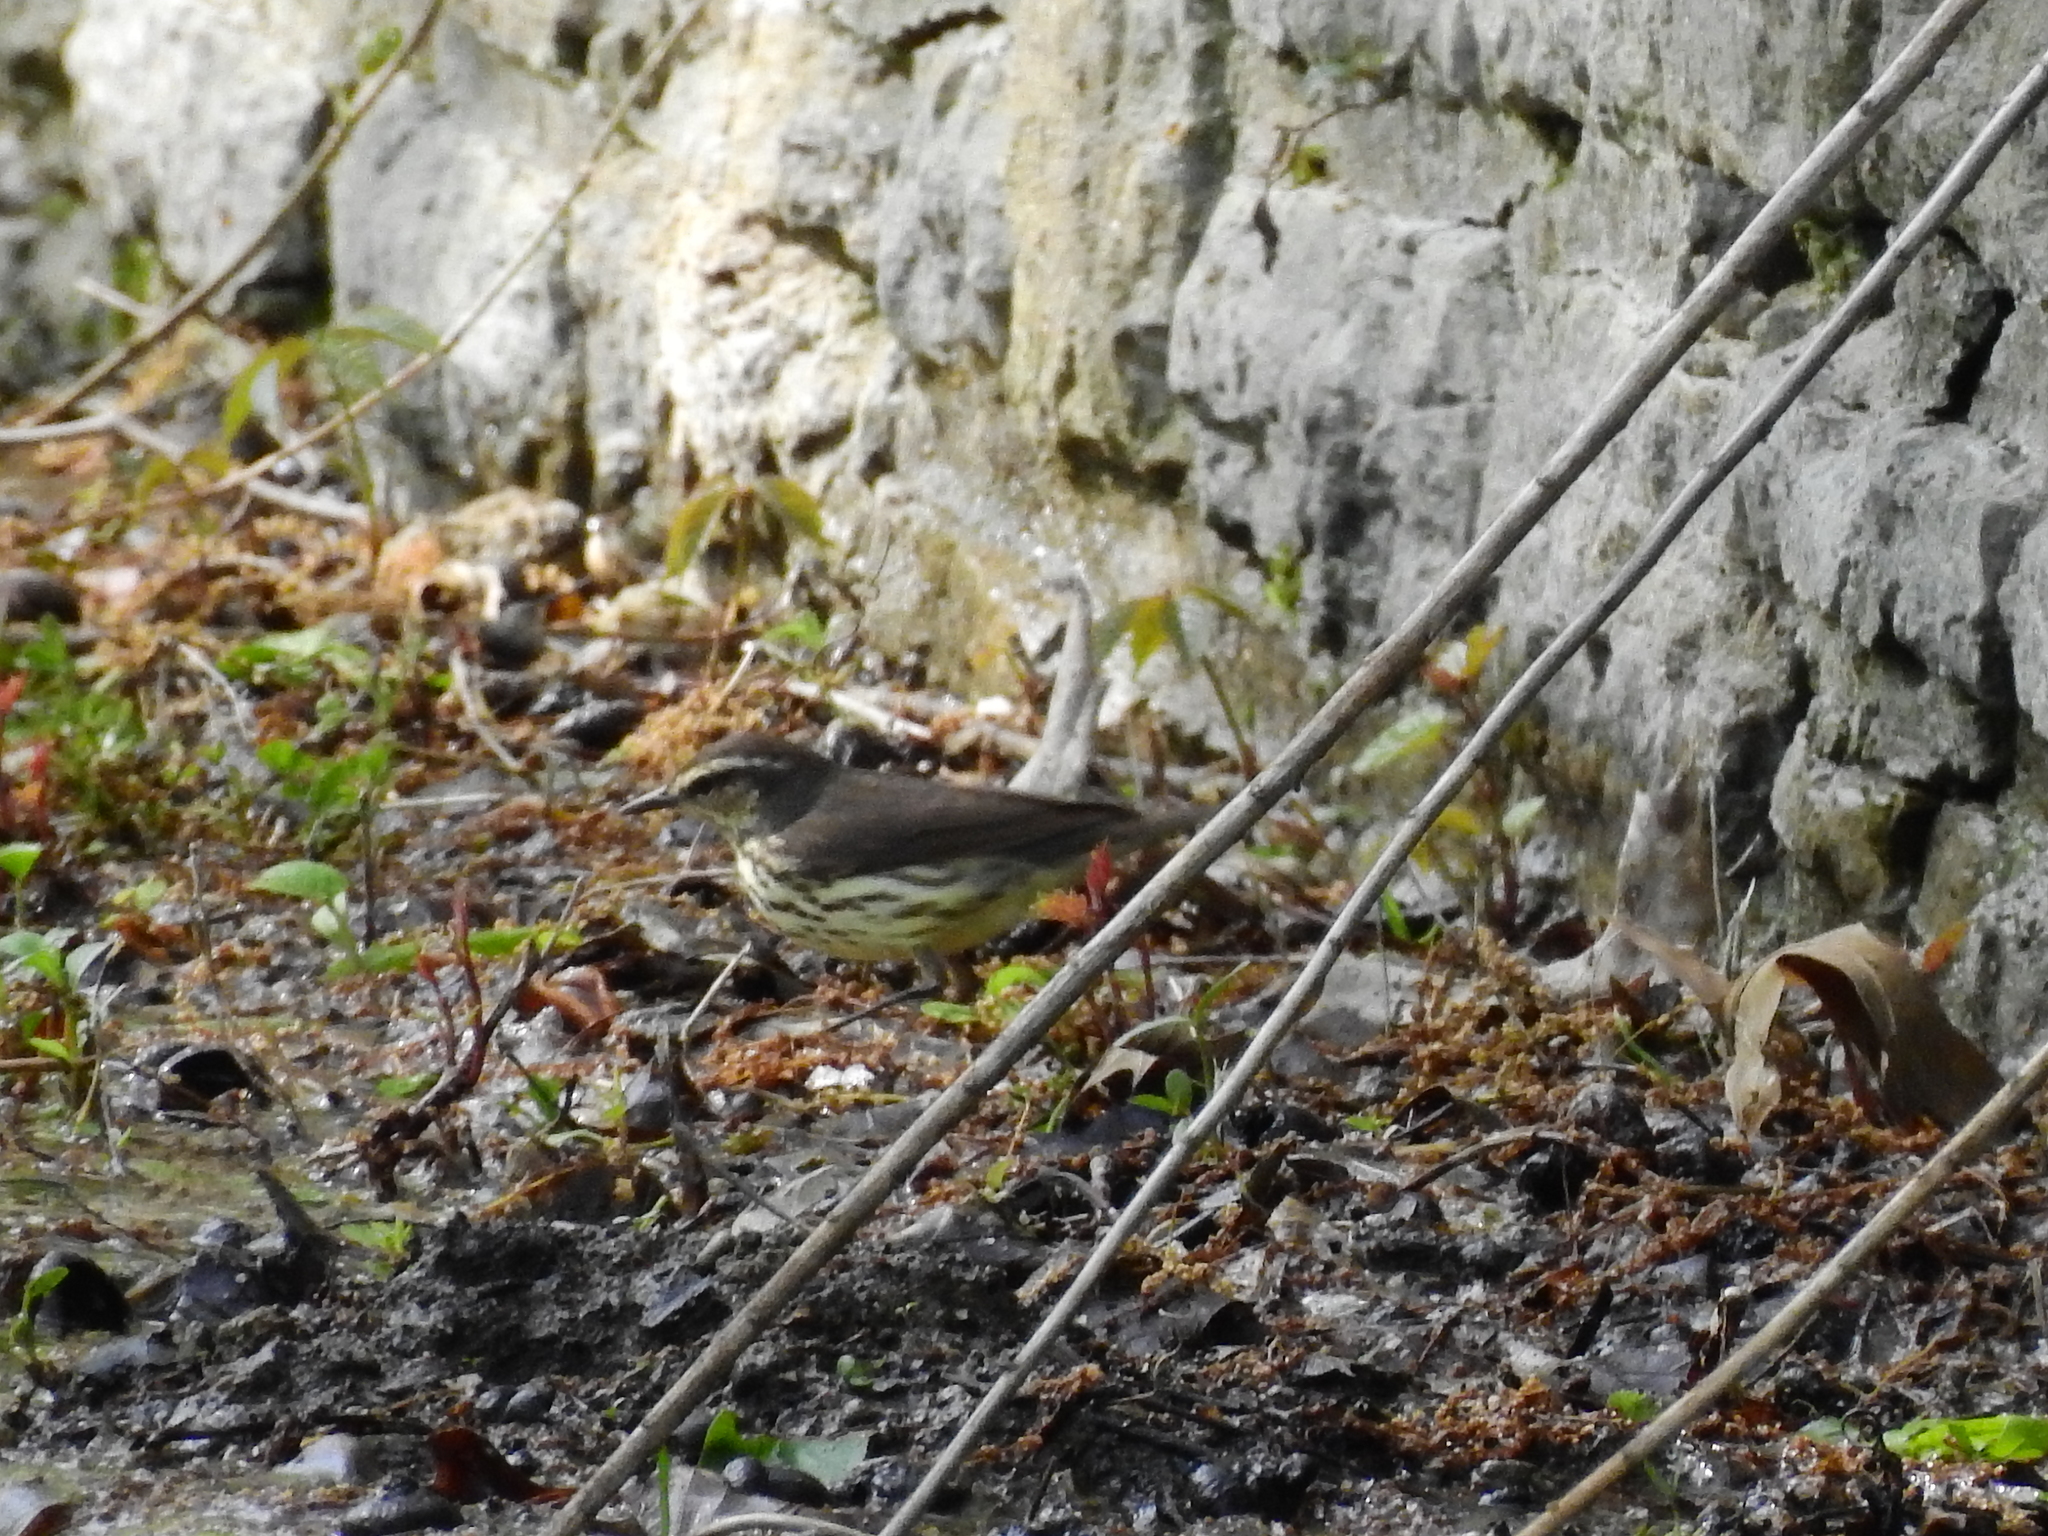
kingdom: Animalia
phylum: Chordata
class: Aves
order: Passeriformes
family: Parulidae
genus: Parkesia
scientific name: Parkesia noveboracensis
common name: Northern waterthrush
